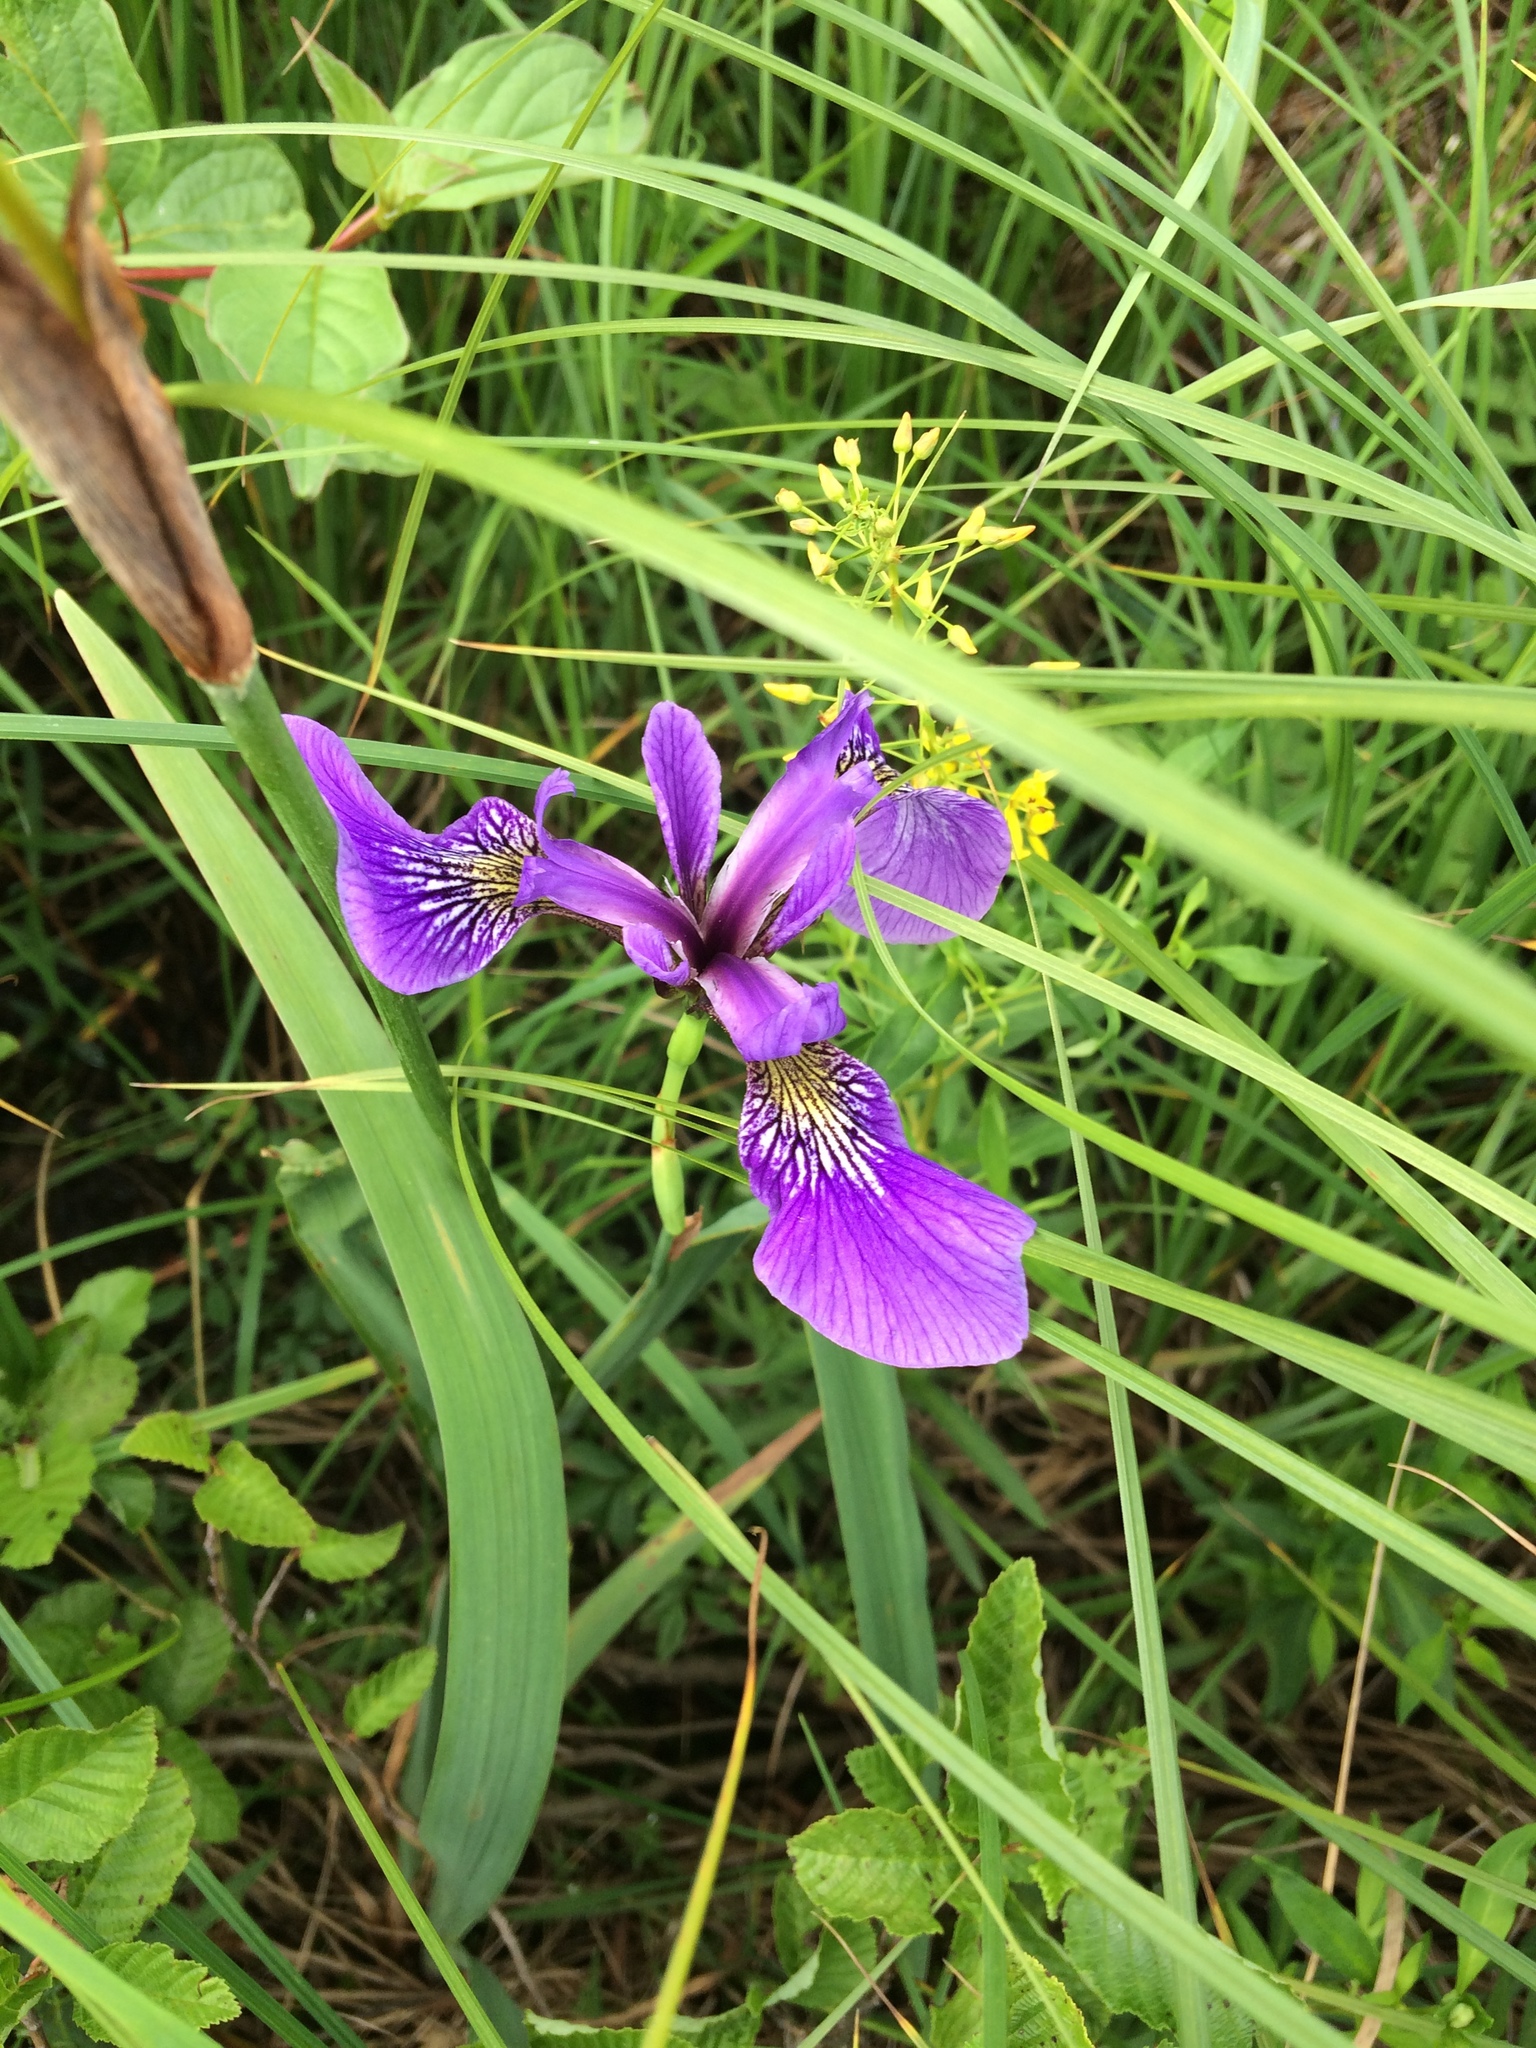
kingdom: Plantae
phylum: Tracheophyta
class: Liliopsida
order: Asparagales
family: Iridaceae
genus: Iris
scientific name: Iris versicolor
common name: Purple iris
